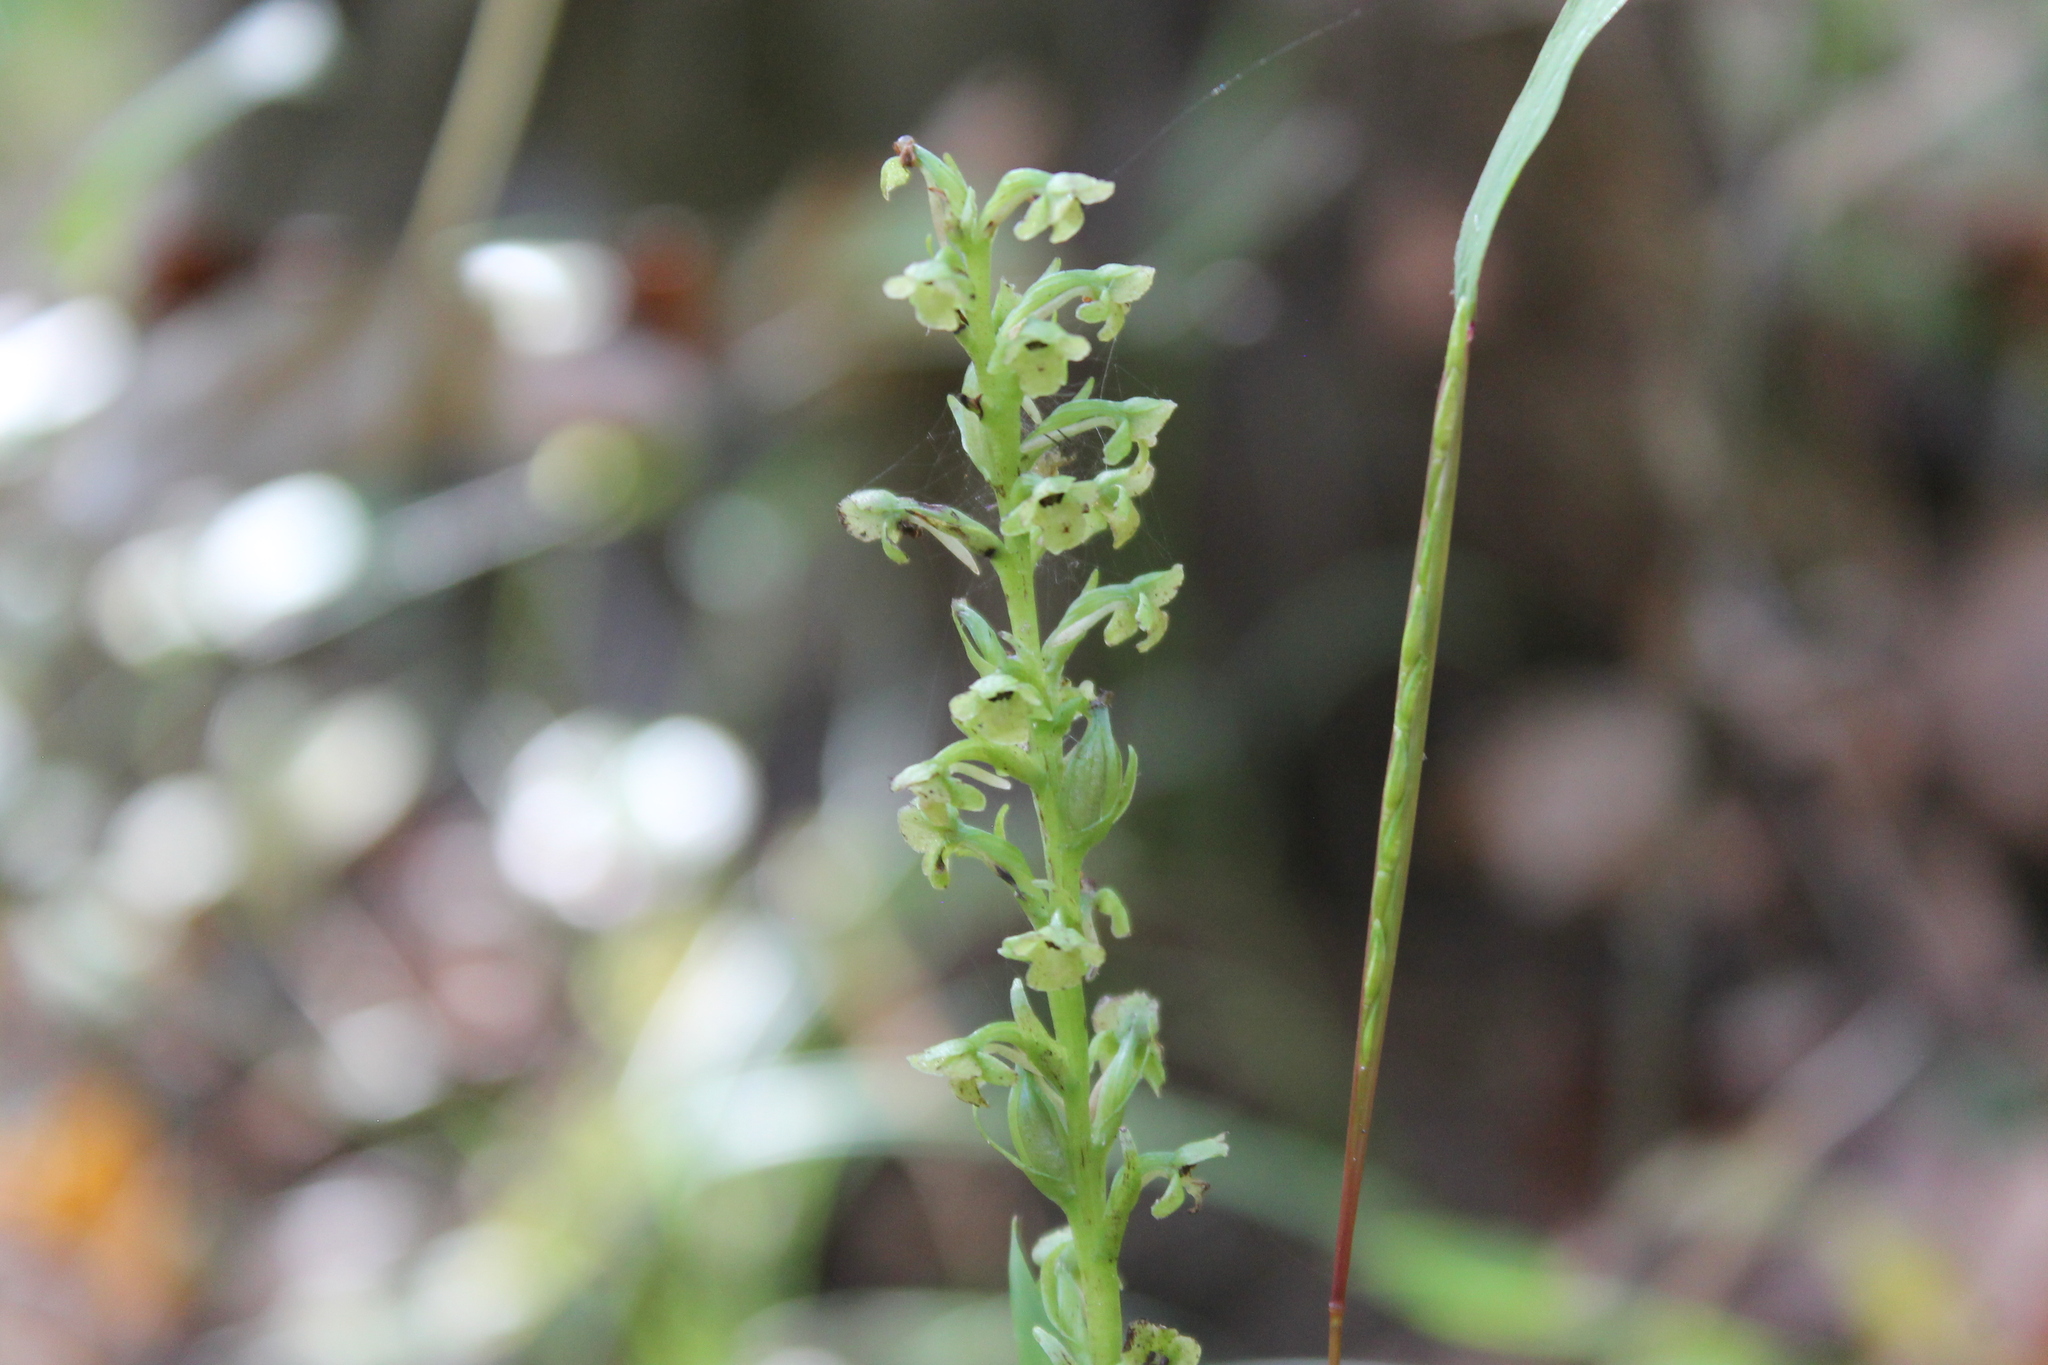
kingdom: Plantae
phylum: Tracheophyta
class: Liliopsida
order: Asparagales
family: Orchidaceae
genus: Platanthera
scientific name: Platanthera flava
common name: Gypsy-spikes
